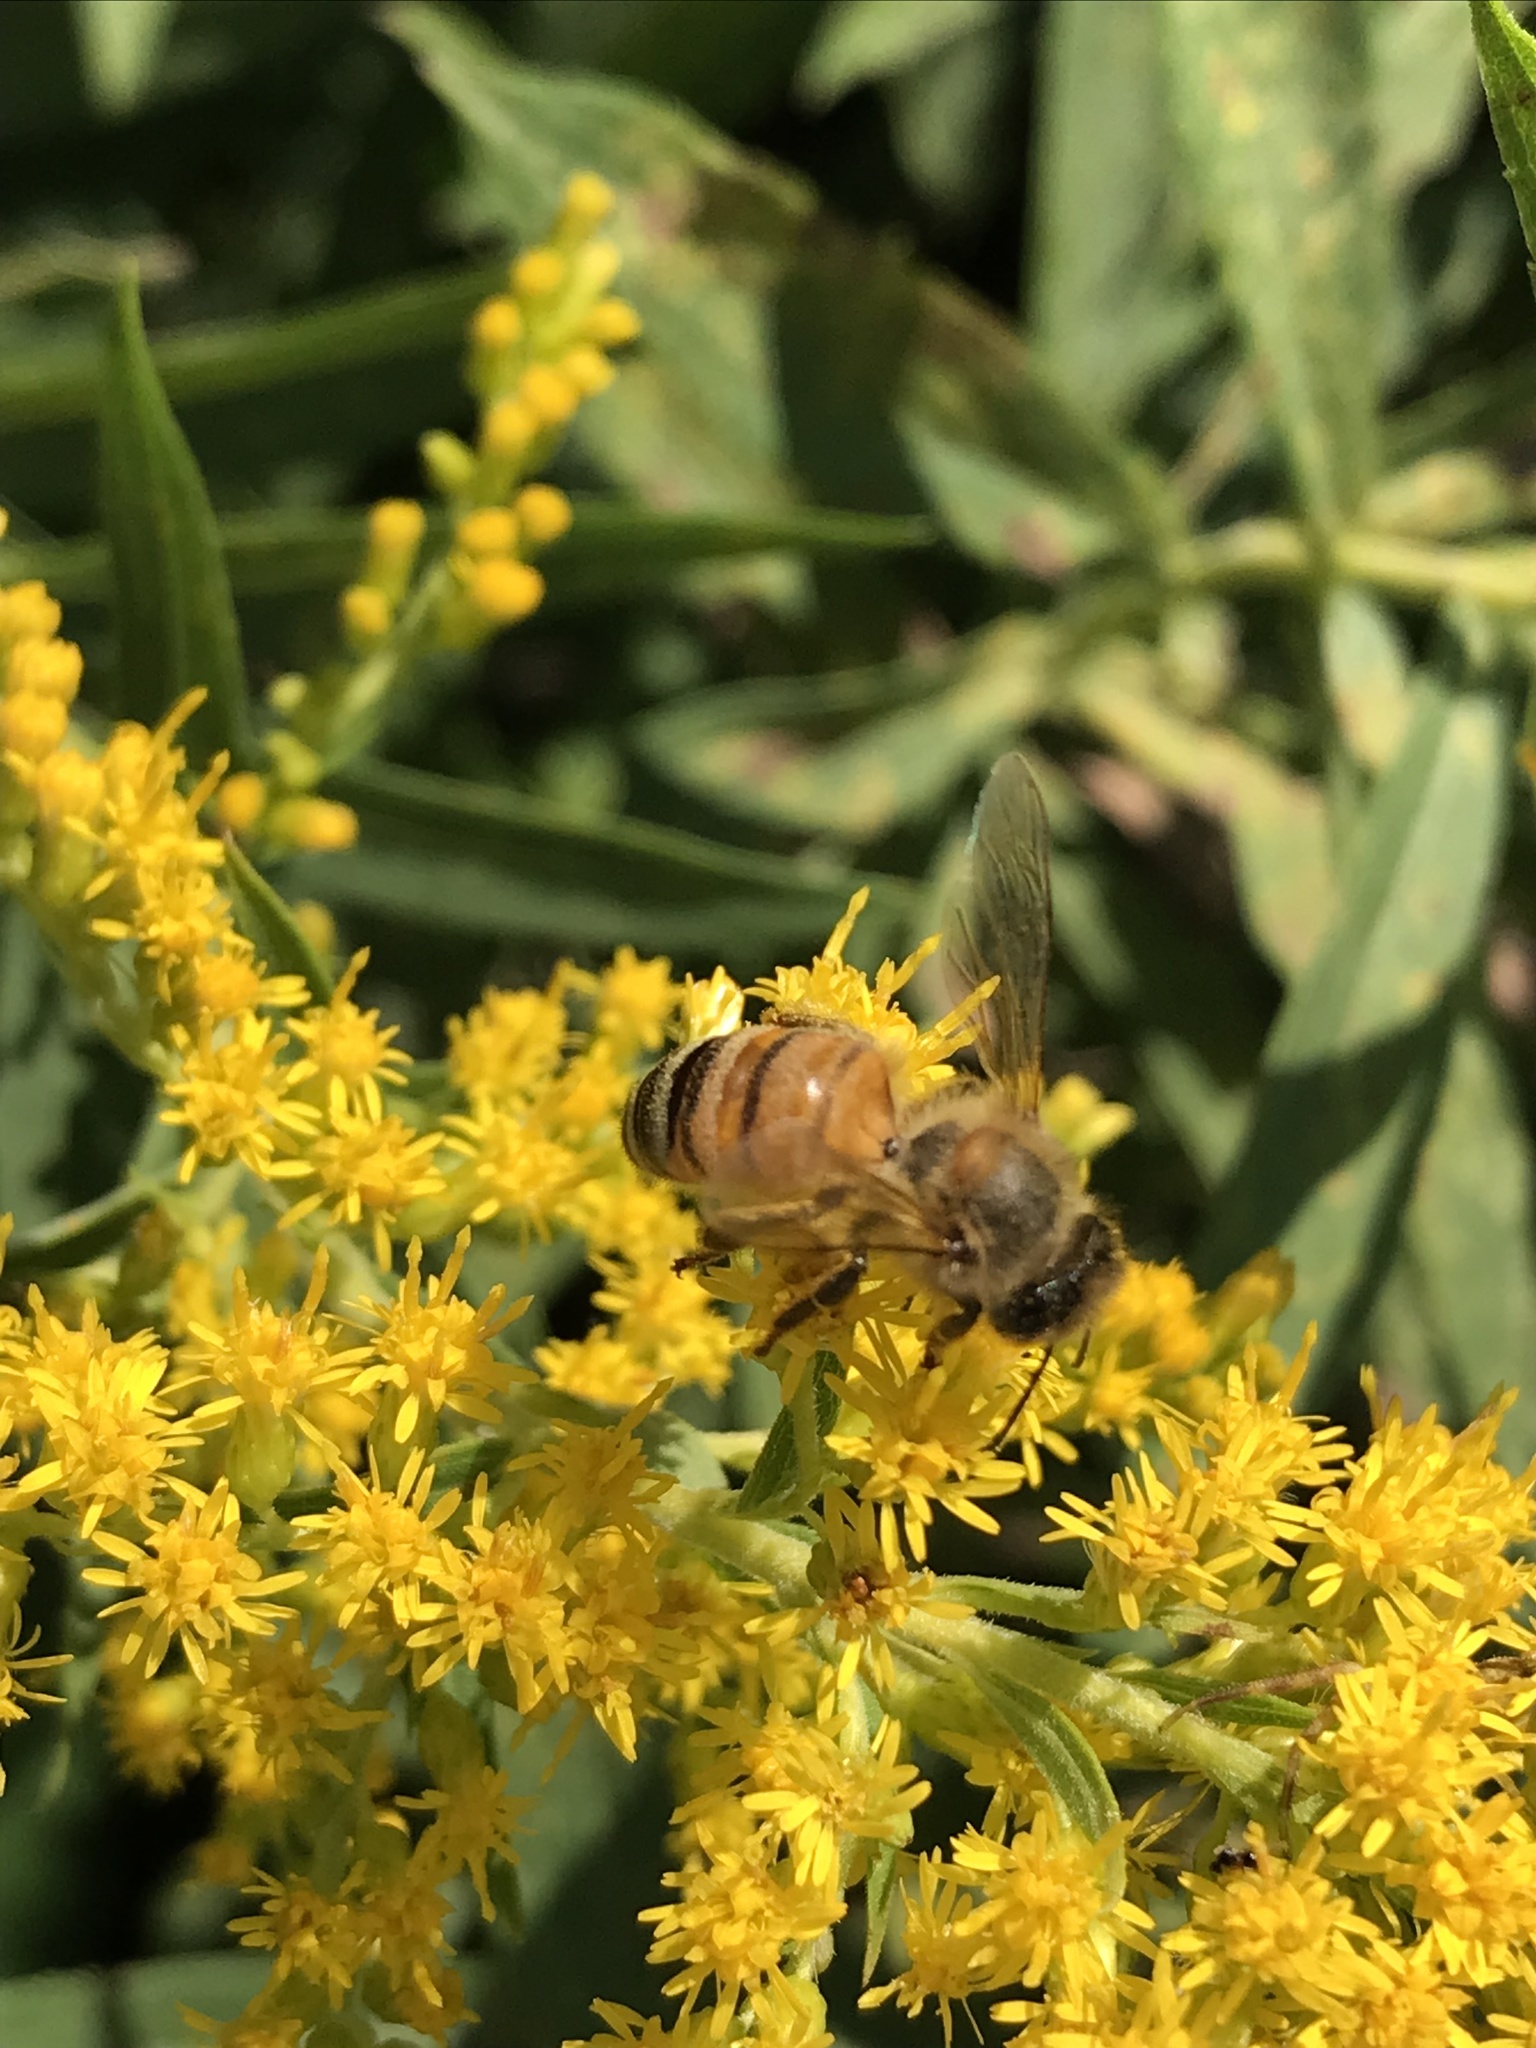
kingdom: Animalia
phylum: Arthropoda
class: Insecta
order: Hymenoptera
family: Apidae
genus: Apis
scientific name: Apis mellifera
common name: Honey bee
